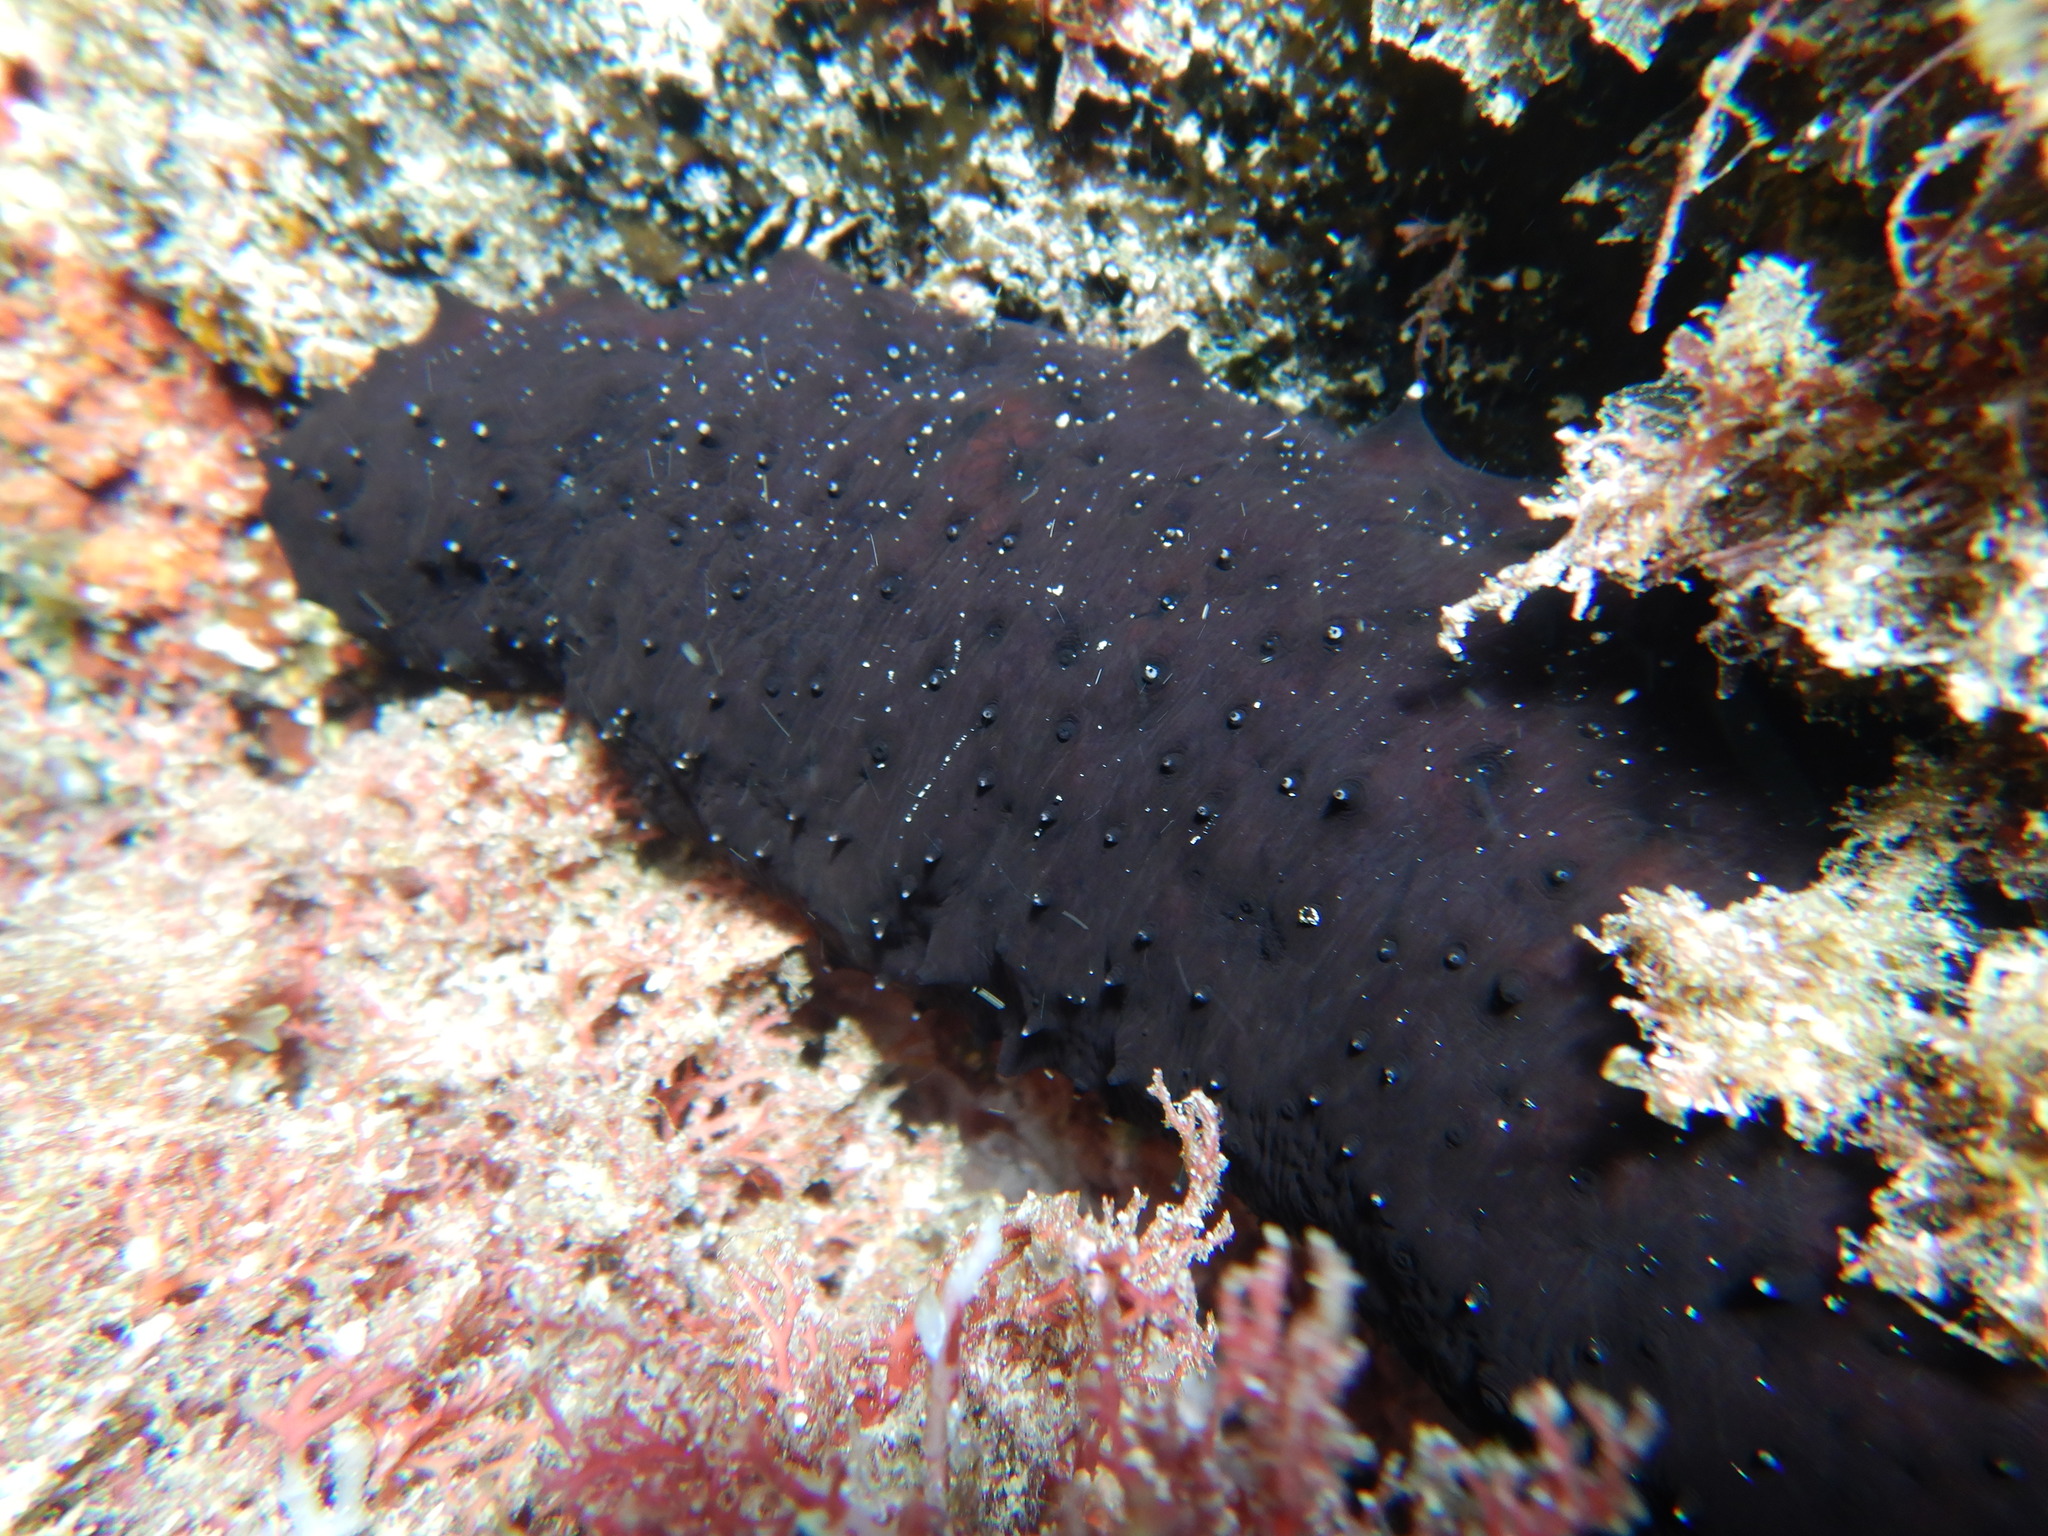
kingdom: Animalia
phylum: Echinodermata
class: Holothuroidea
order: Holothuriida
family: Holothuriidae
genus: Holothuria
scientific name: Holothuria forskali
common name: Black sea cucumber
